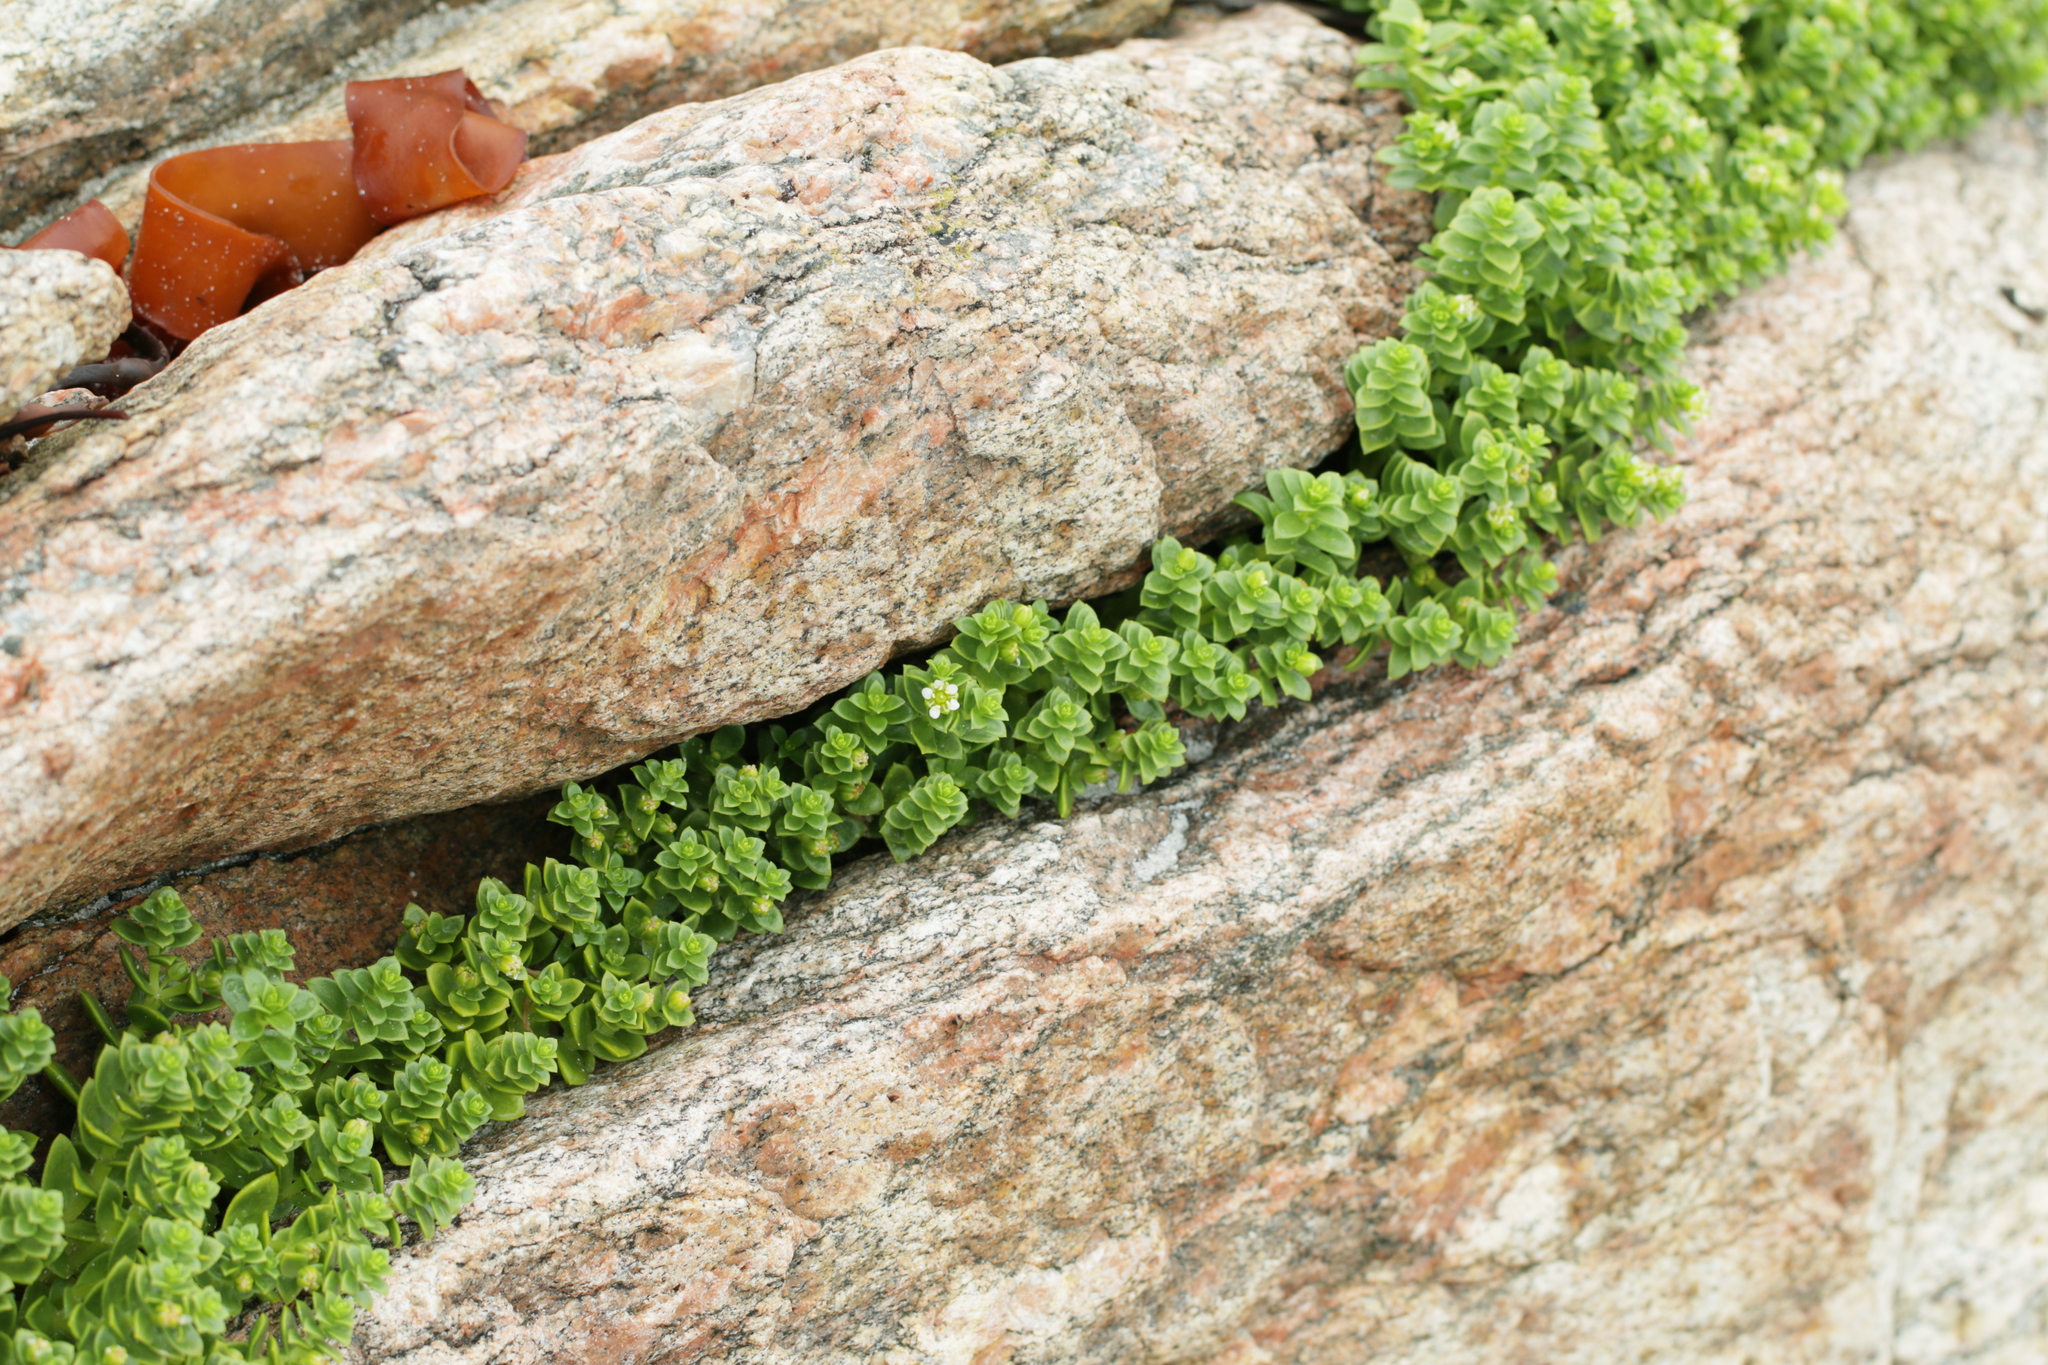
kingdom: Plantae
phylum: Tracheophyta
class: Magnoliopsida
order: Caryophyllales
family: Caryophyllaceae
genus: Honckenya
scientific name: Honckenya peploides
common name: Sea sandwort
